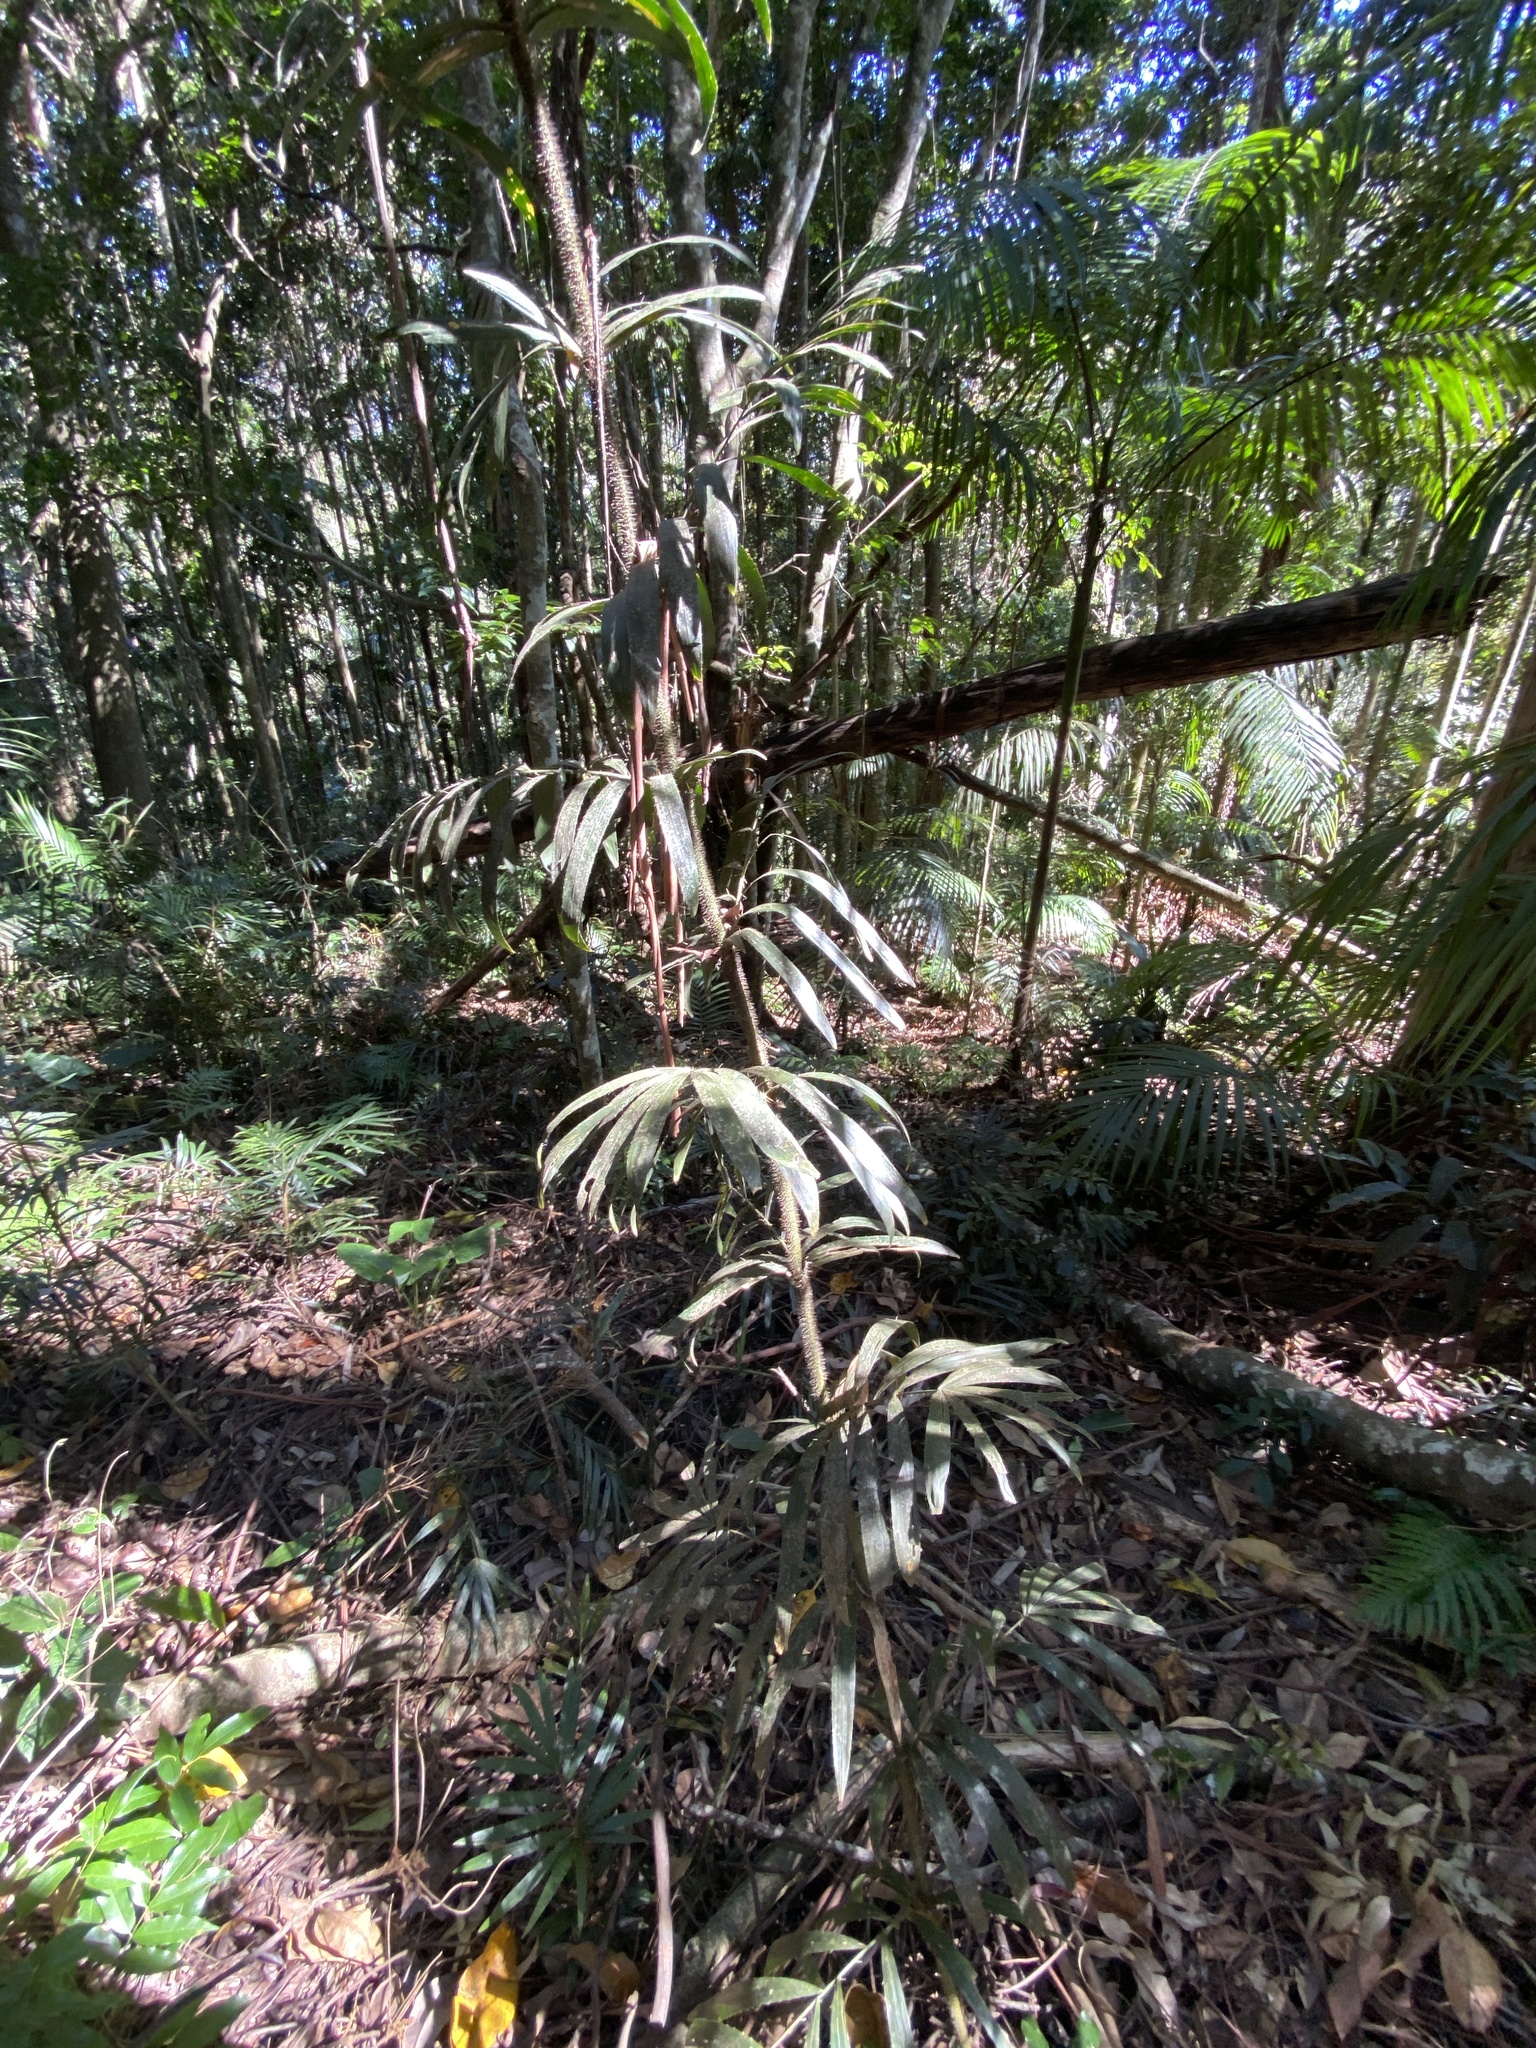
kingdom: Plantae
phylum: Tracheophyta
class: Liliopsida
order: Arecales
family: Arecaceae
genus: Calamus
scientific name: Calamus muelleri
